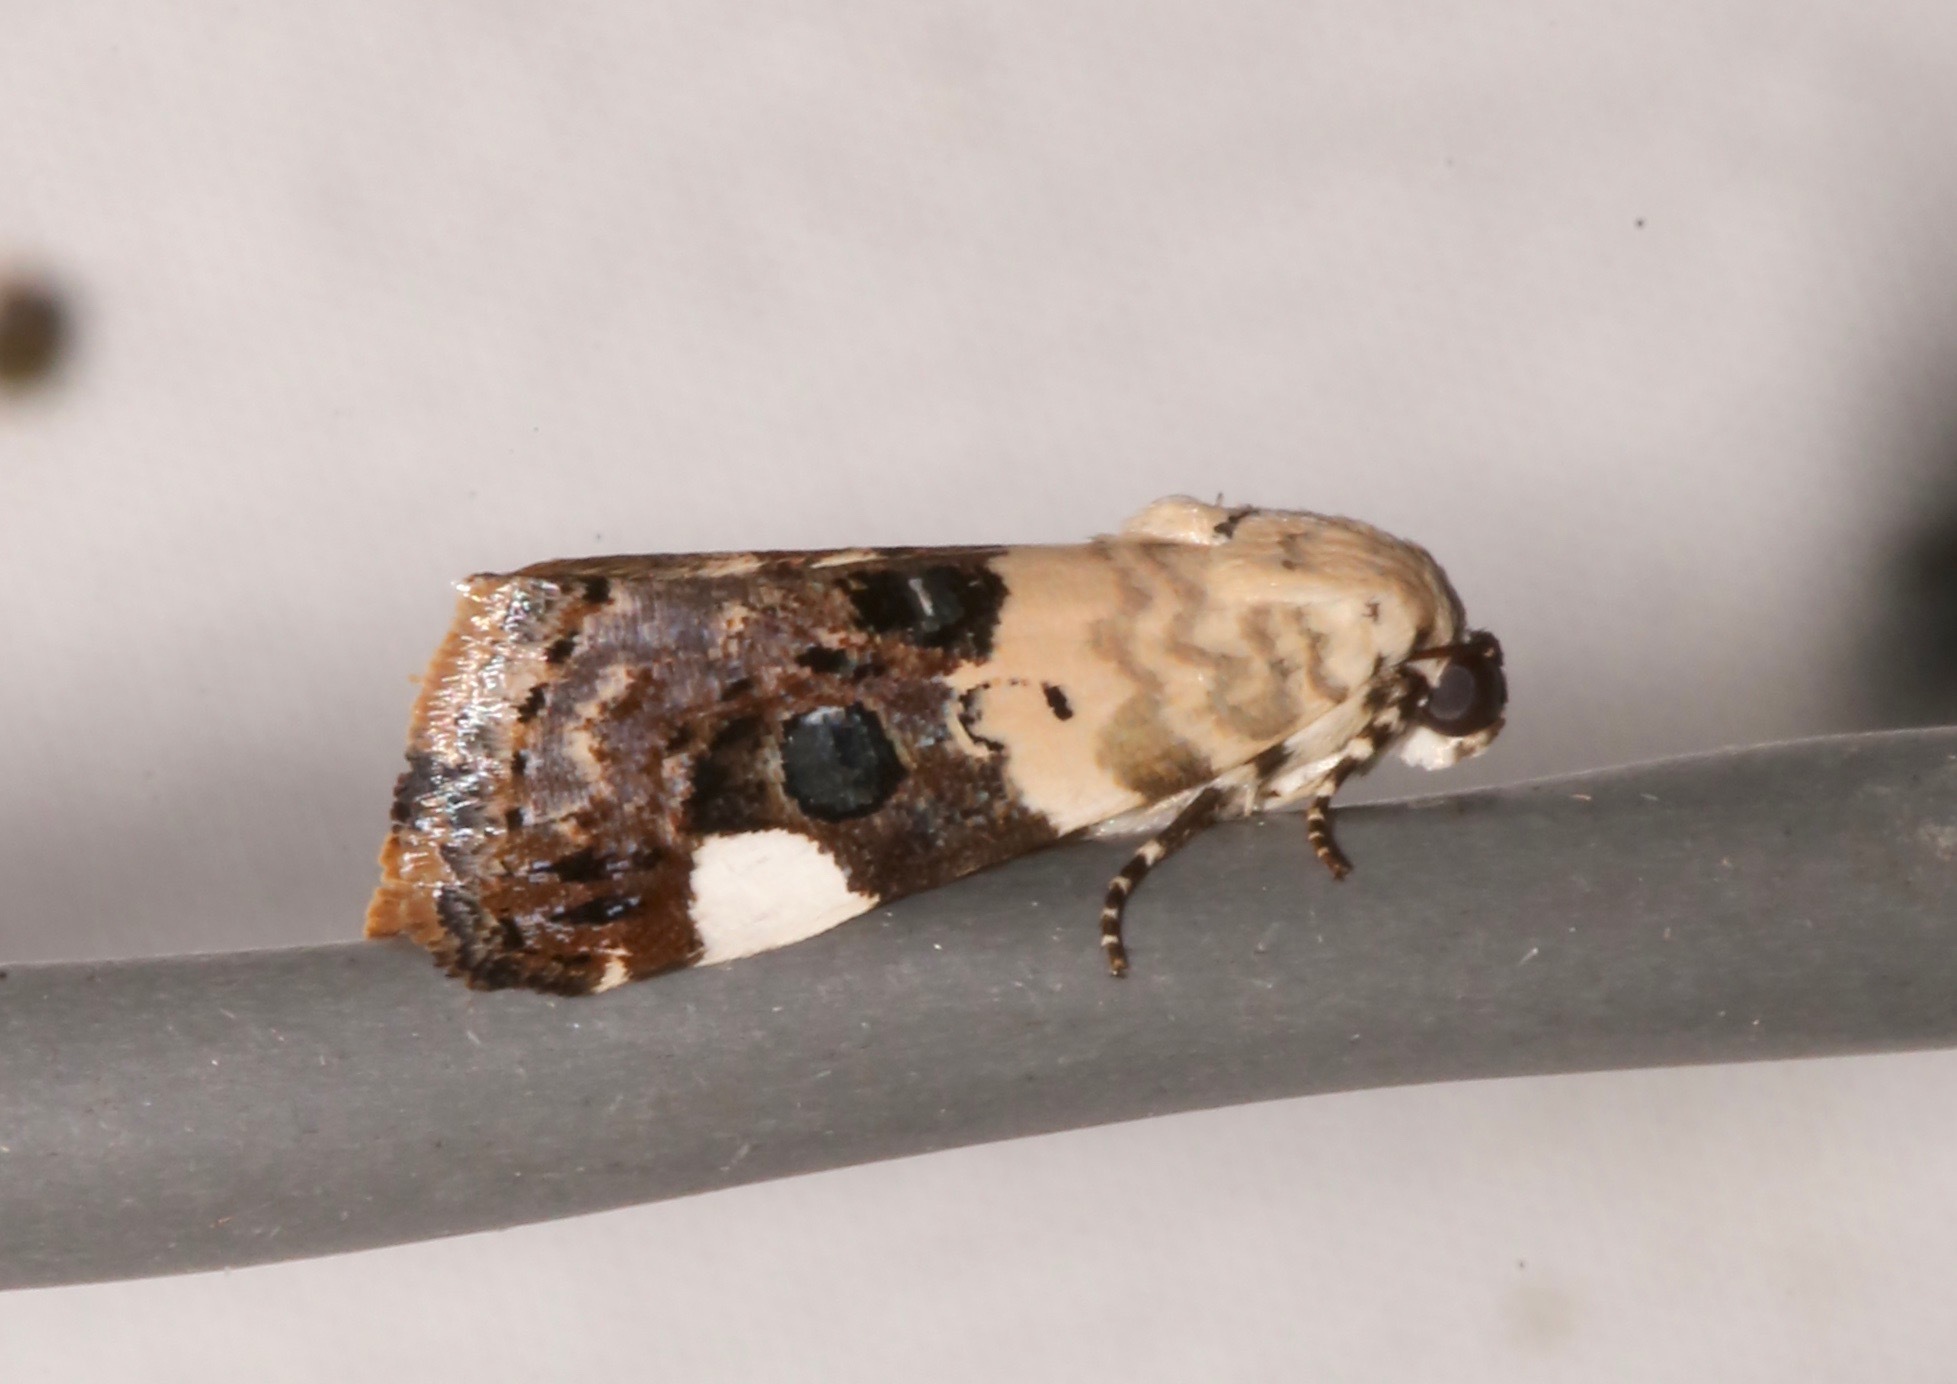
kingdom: Animalia
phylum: Arthropoda
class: Insecta
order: Lepidoptera
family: Noctuidae
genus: Acontia
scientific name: Acontia geminocula
